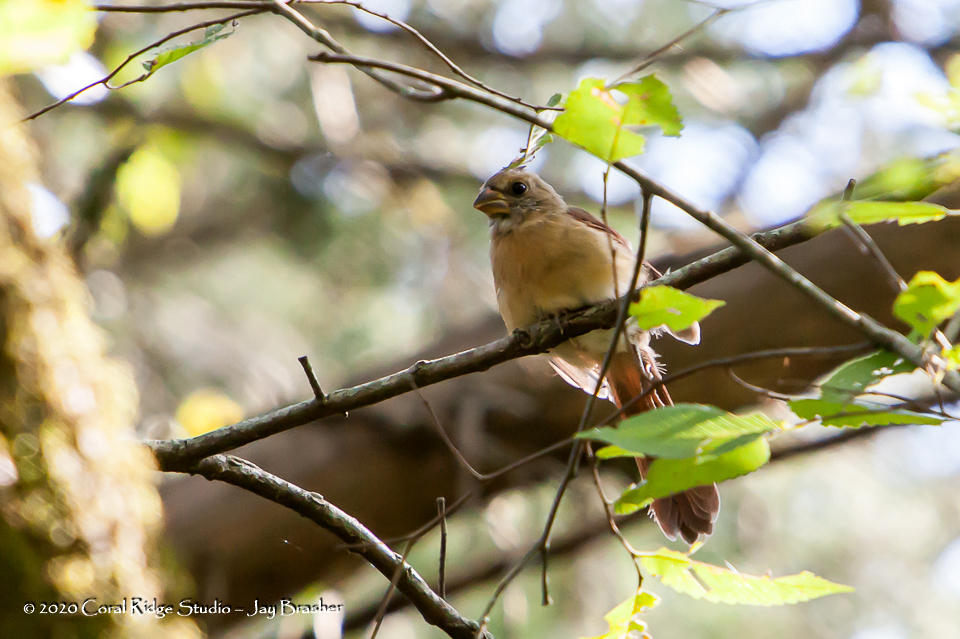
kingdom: Animalia
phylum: Chordata
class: Aves
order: Passeriformes
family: Cardinalidae
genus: Cardinalis
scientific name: Cardinalis cardinalis
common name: Northern cardinal
